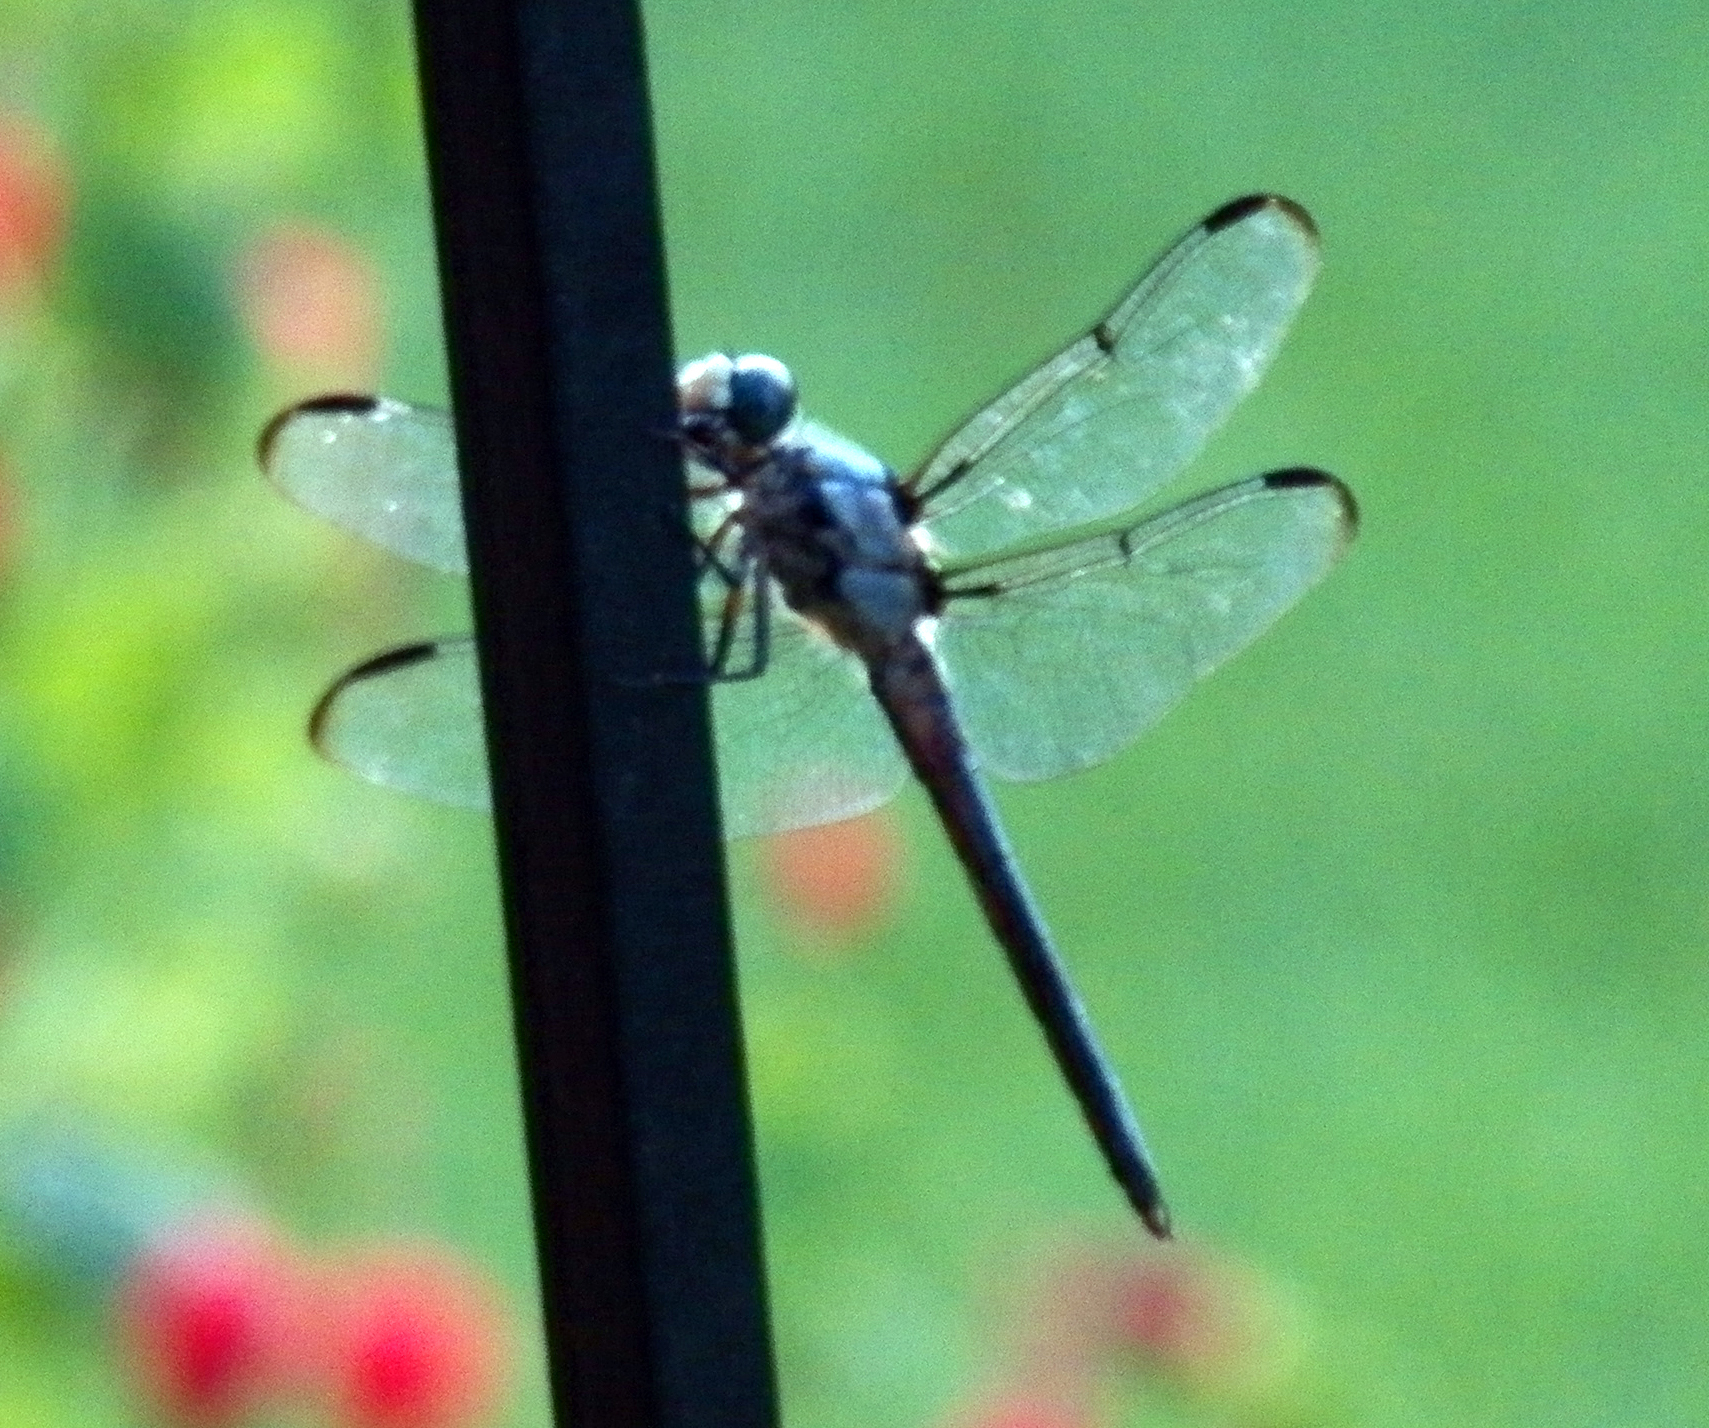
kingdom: Animalia
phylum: Arthropoda
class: Insecta
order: Odonata
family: Libellulidae
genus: Libellula
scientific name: Libellula vibrans
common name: Great blue skimmer
